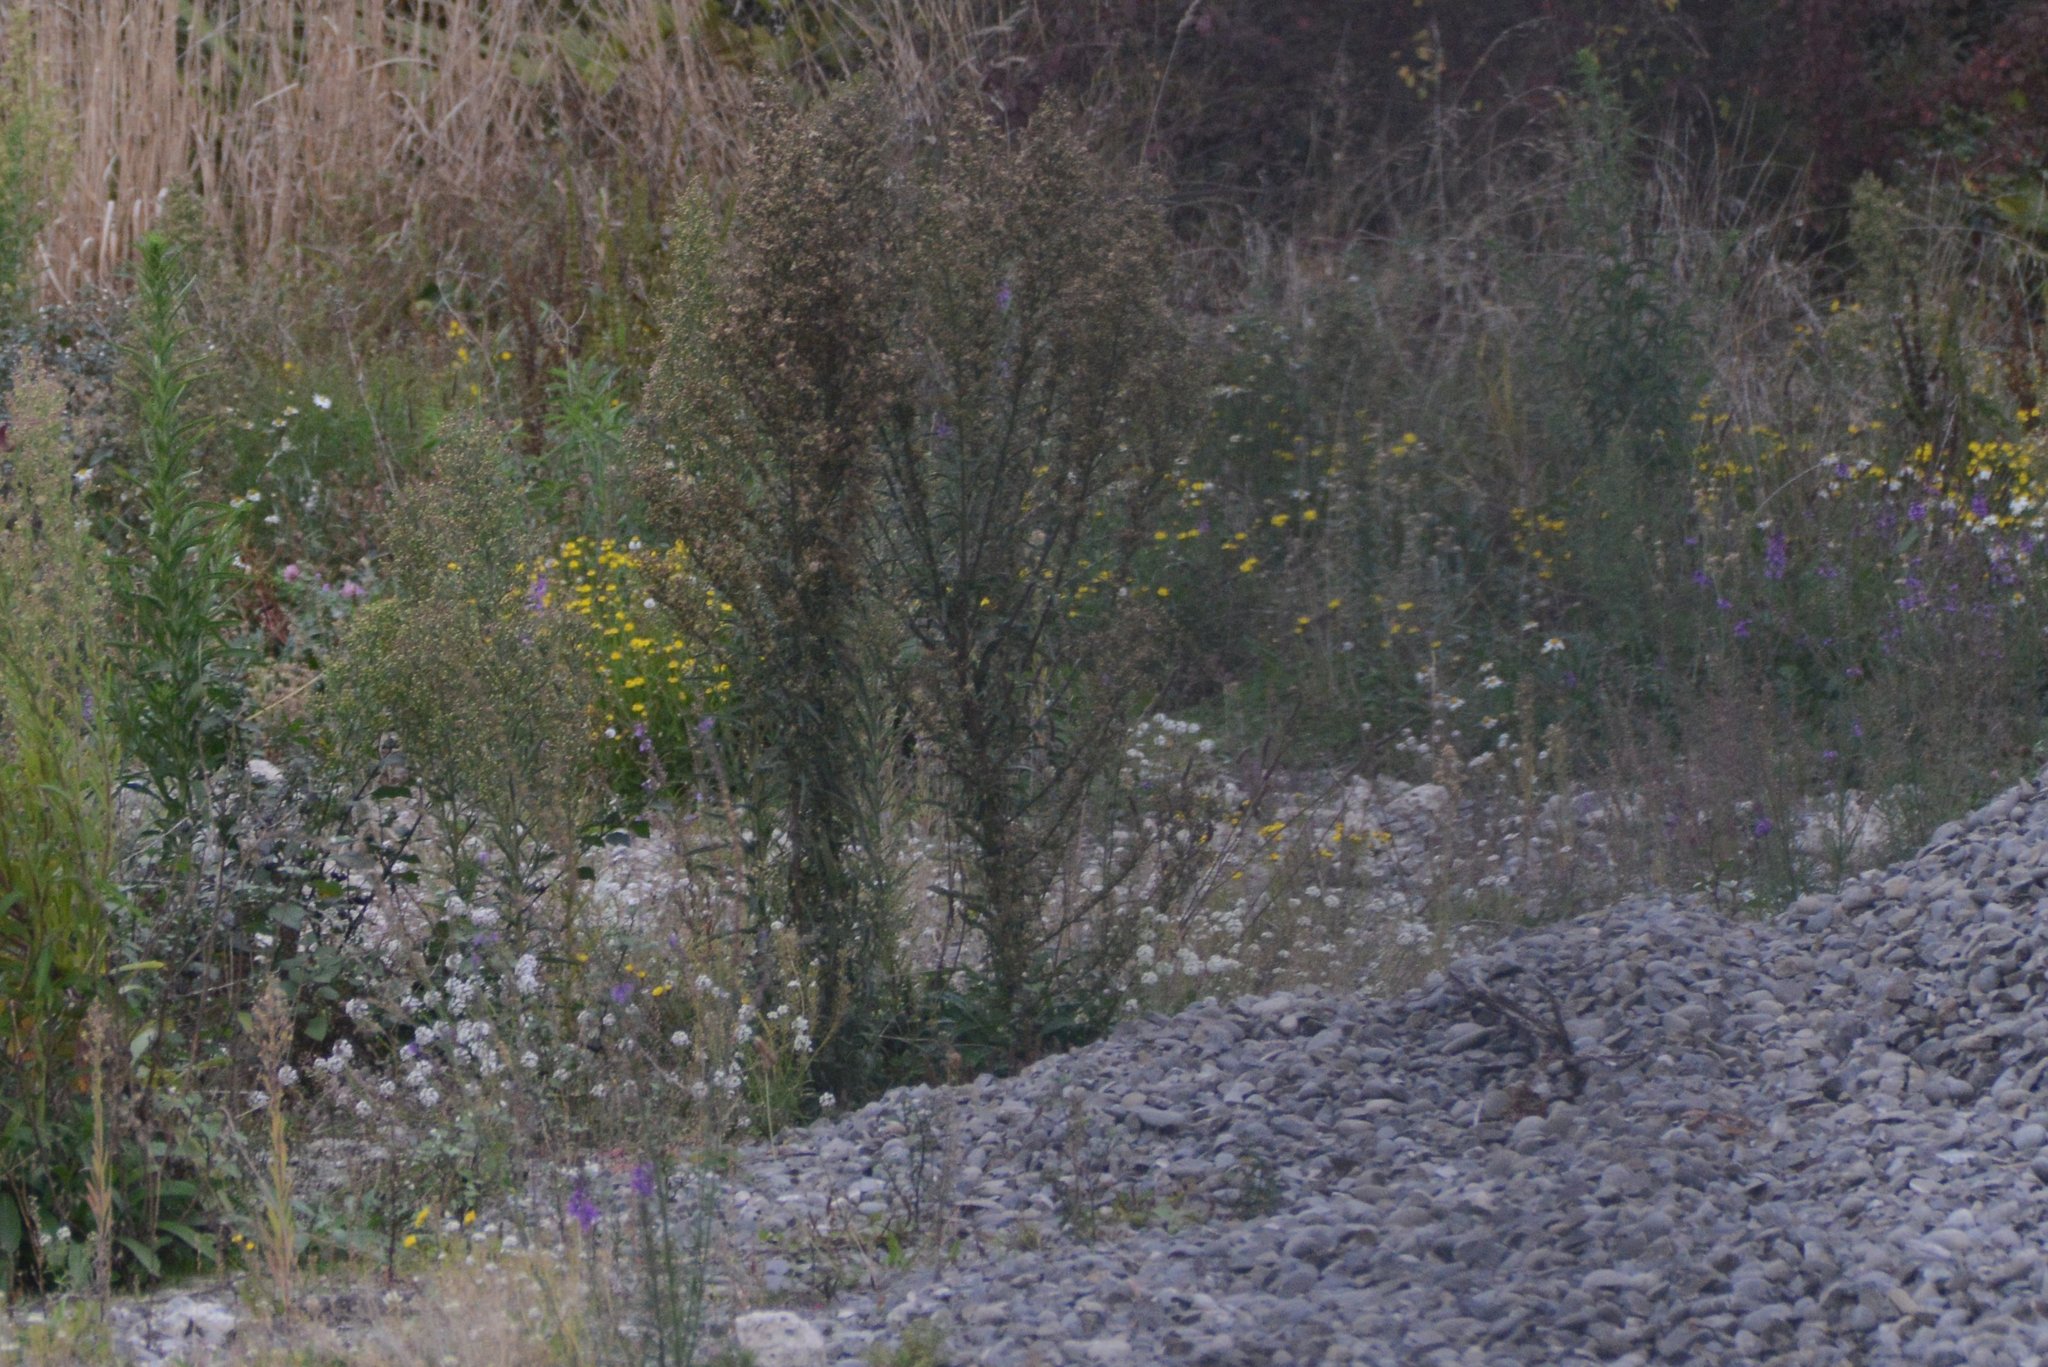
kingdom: Plantae
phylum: Tracheophyta
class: Magnoliopsida
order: Asterales
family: Asteraceae
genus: Senecio
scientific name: Senecio skirrhodon
